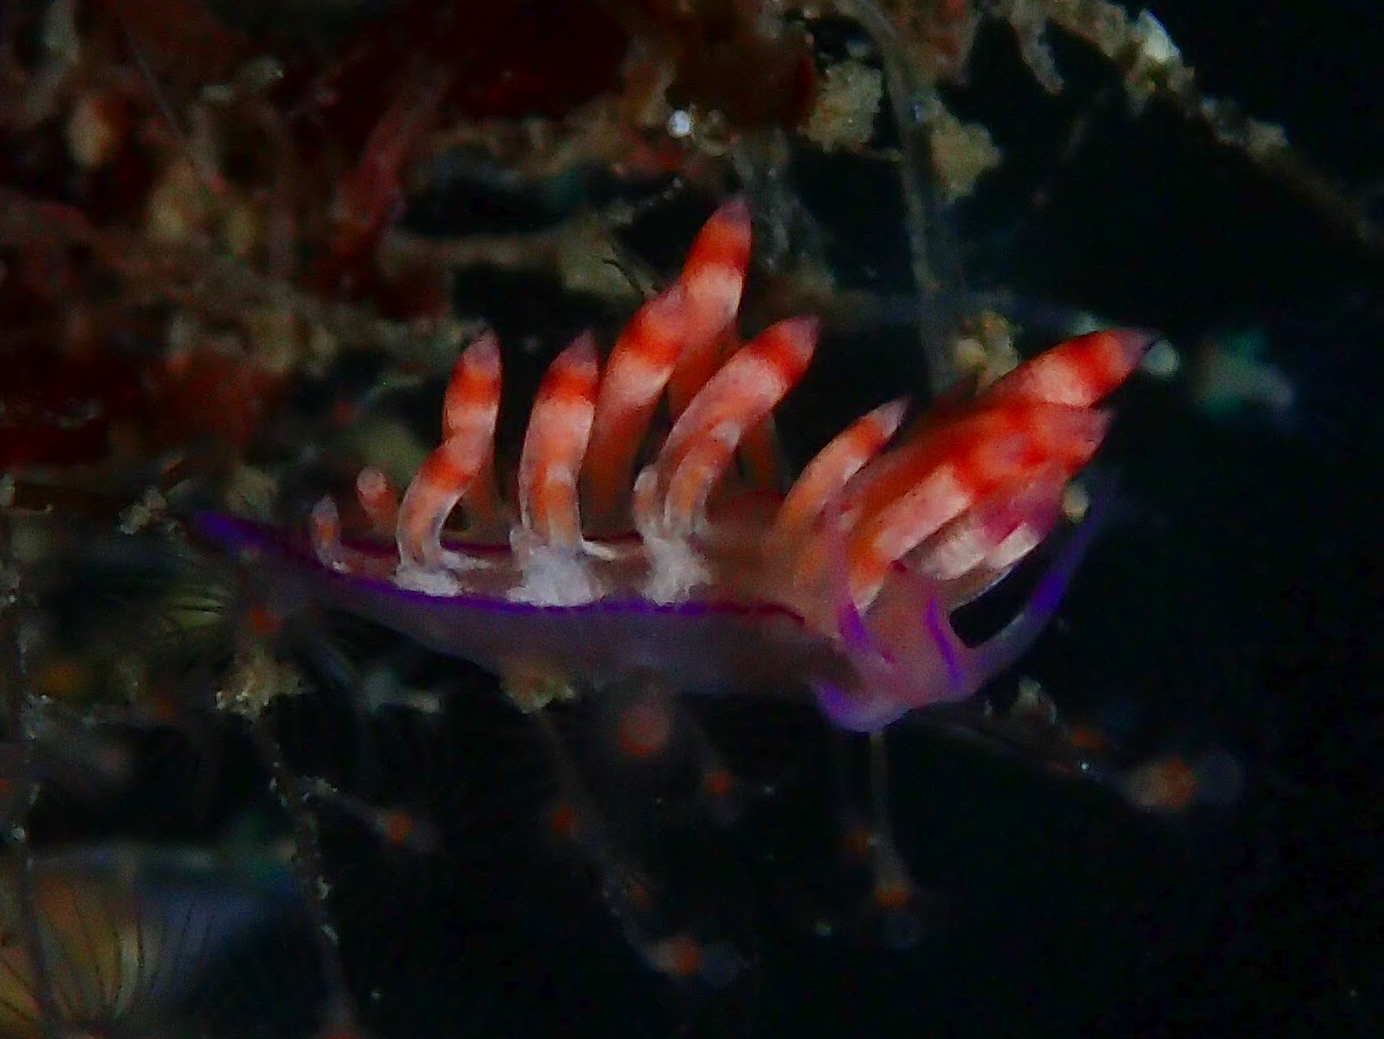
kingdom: Animalia
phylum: Mollusca
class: Gastropoda
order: Nudibranchia
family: Flabellinidae
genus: Coryphellina
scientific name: Coryphellina flamma
